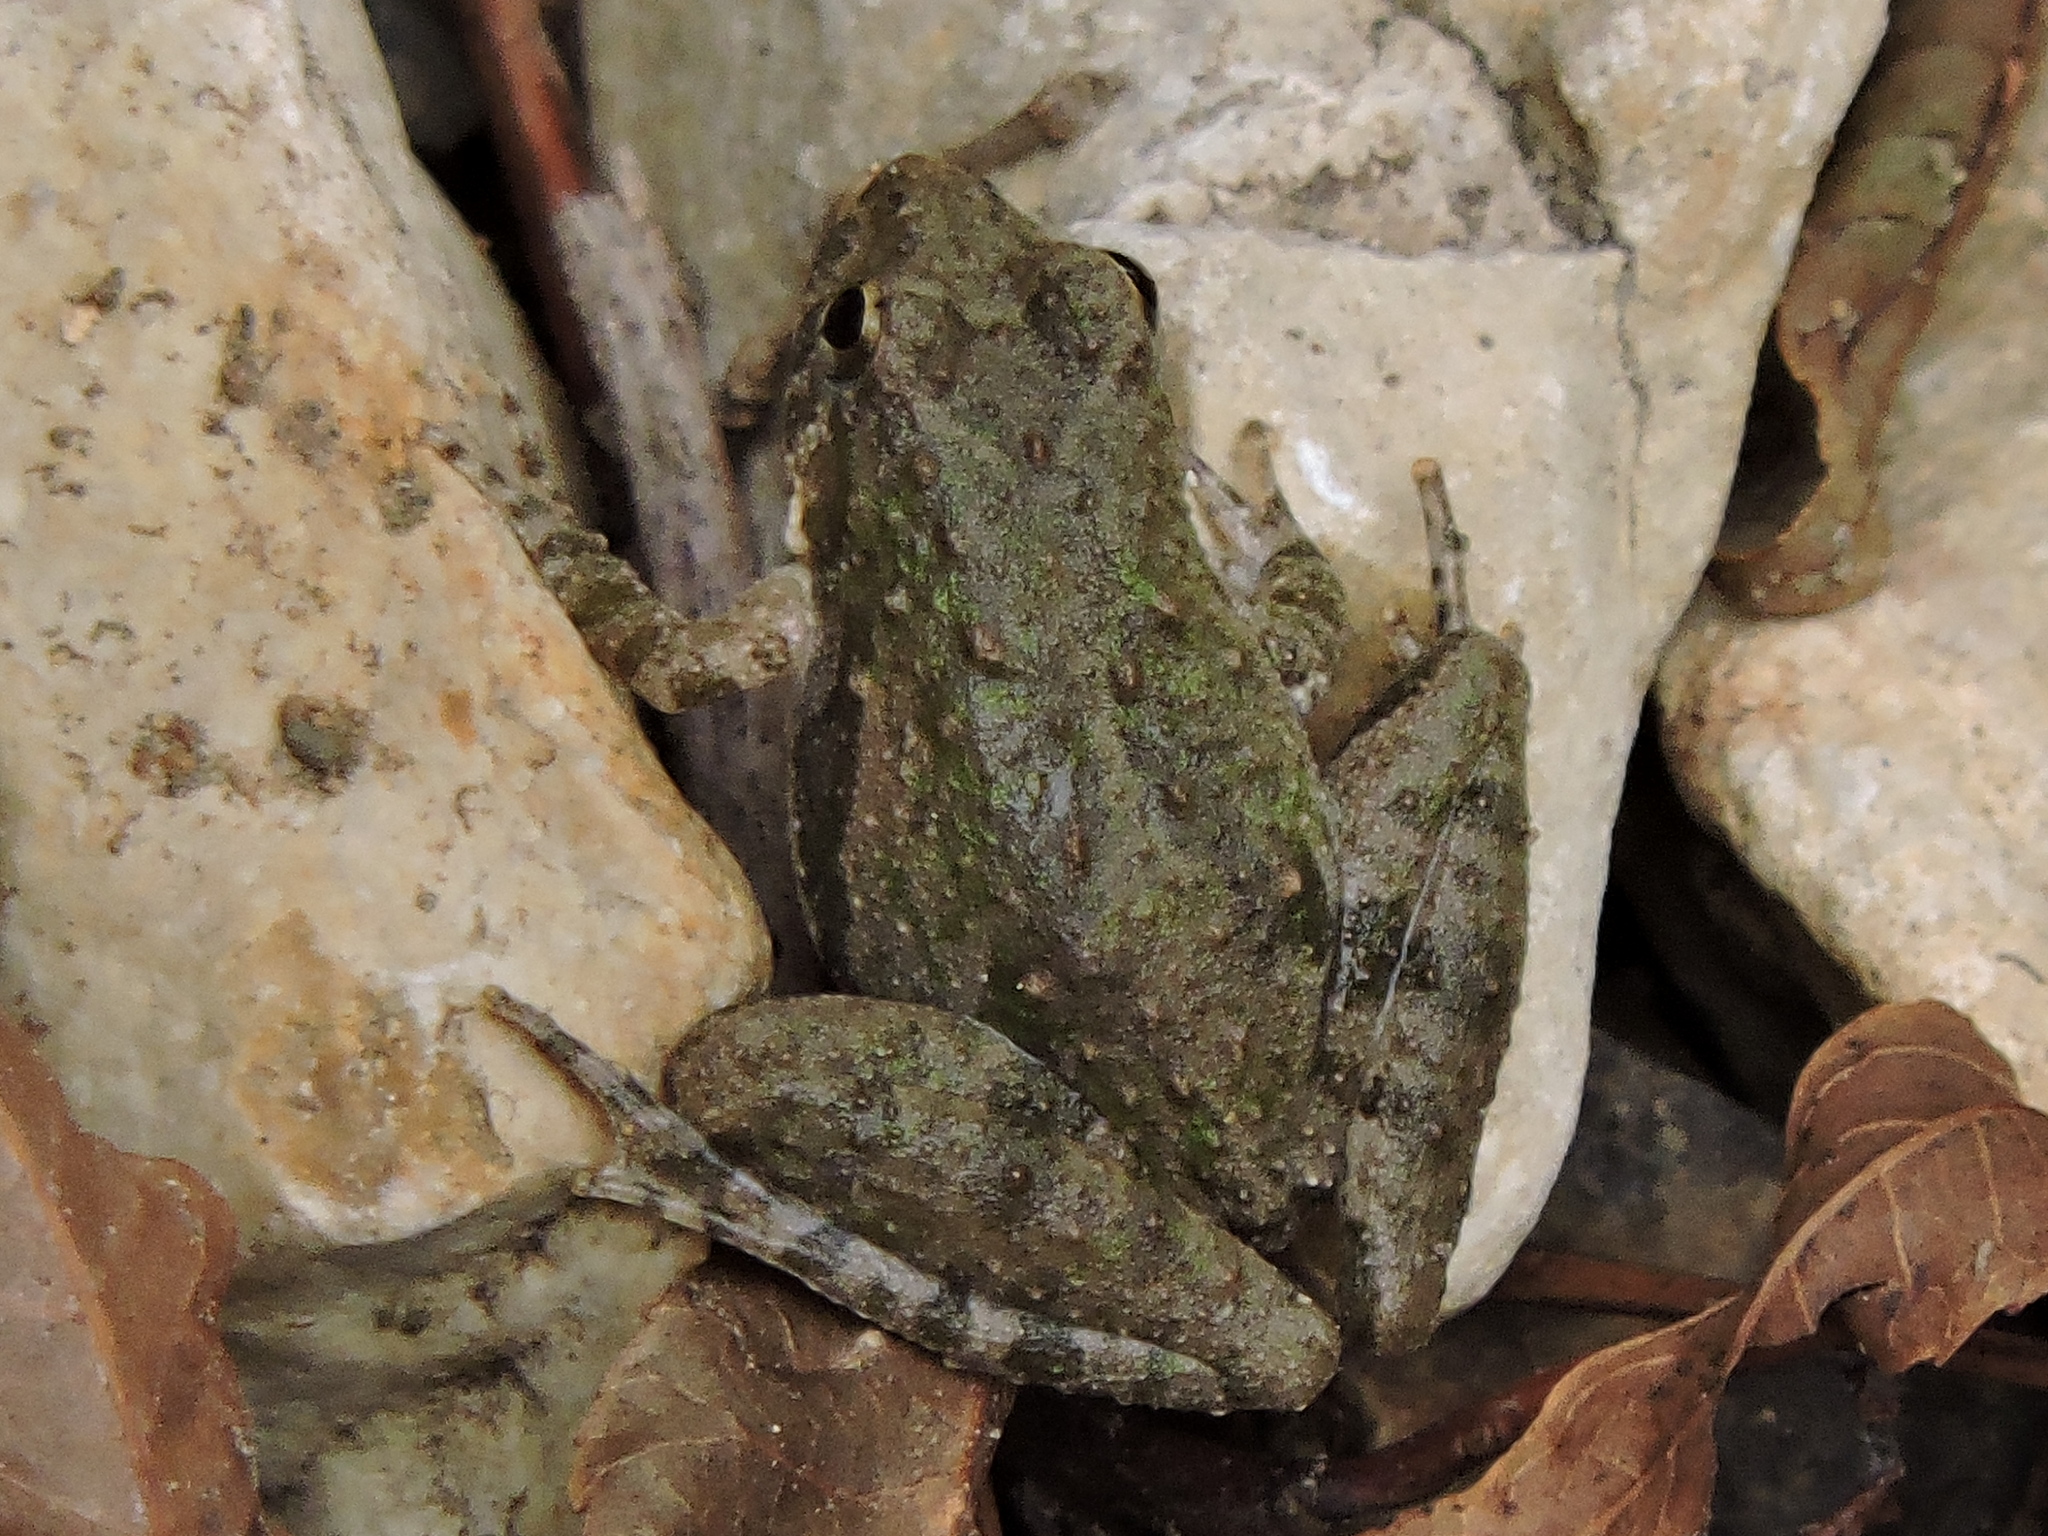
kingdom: Animalia
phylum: Chordata
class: Amphibia
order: Anura
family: Hylidae
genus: Acris
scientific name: Acris blanchardi
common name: Blanchard's cricket frog
